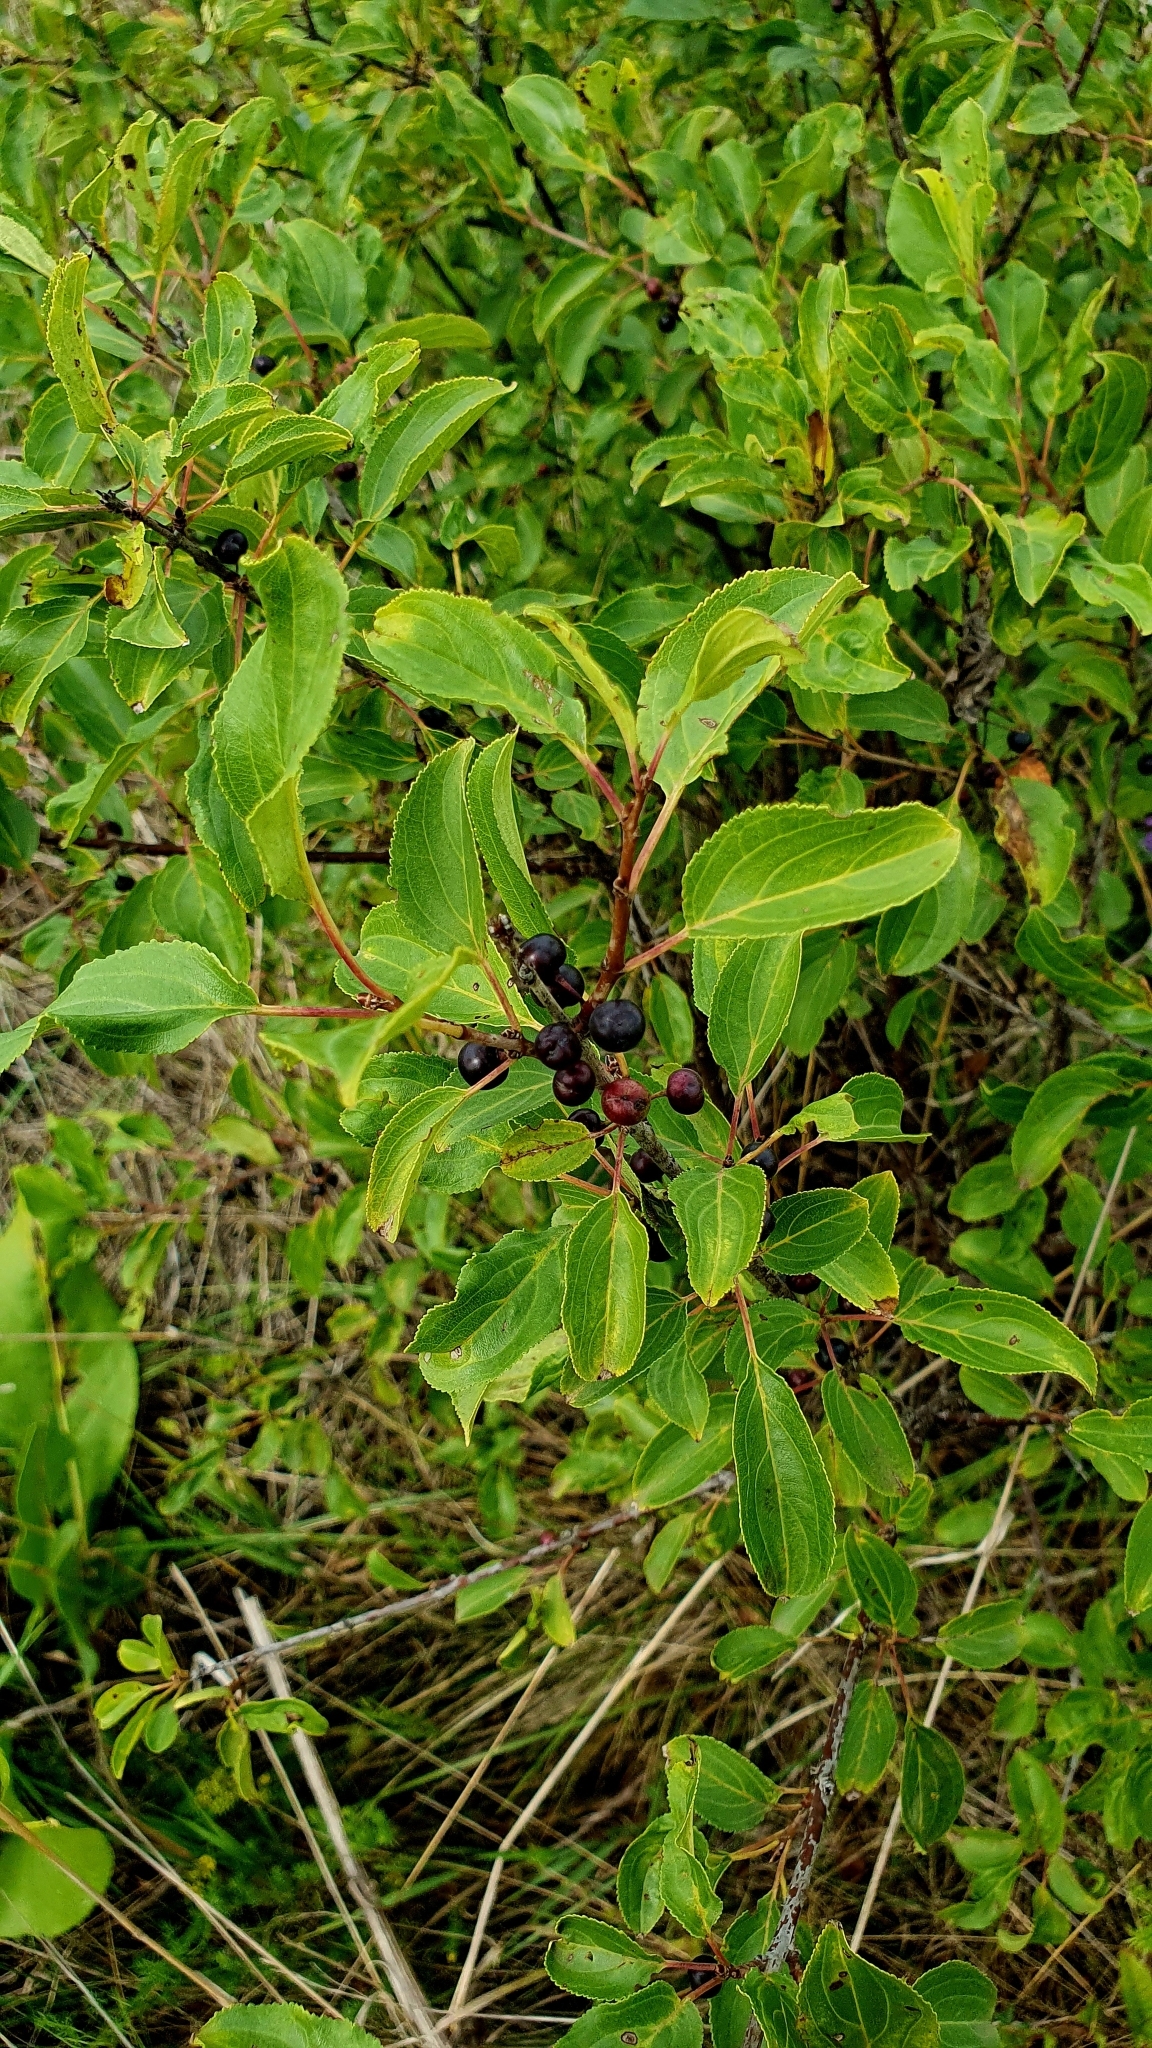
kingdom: Plantae
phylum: Tracheophyta
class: Magnoliopsida
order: Rosales
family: Rhamnaceae
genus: Rhamnus
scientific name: Rhamnus cathartica
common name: Common buckthorn
